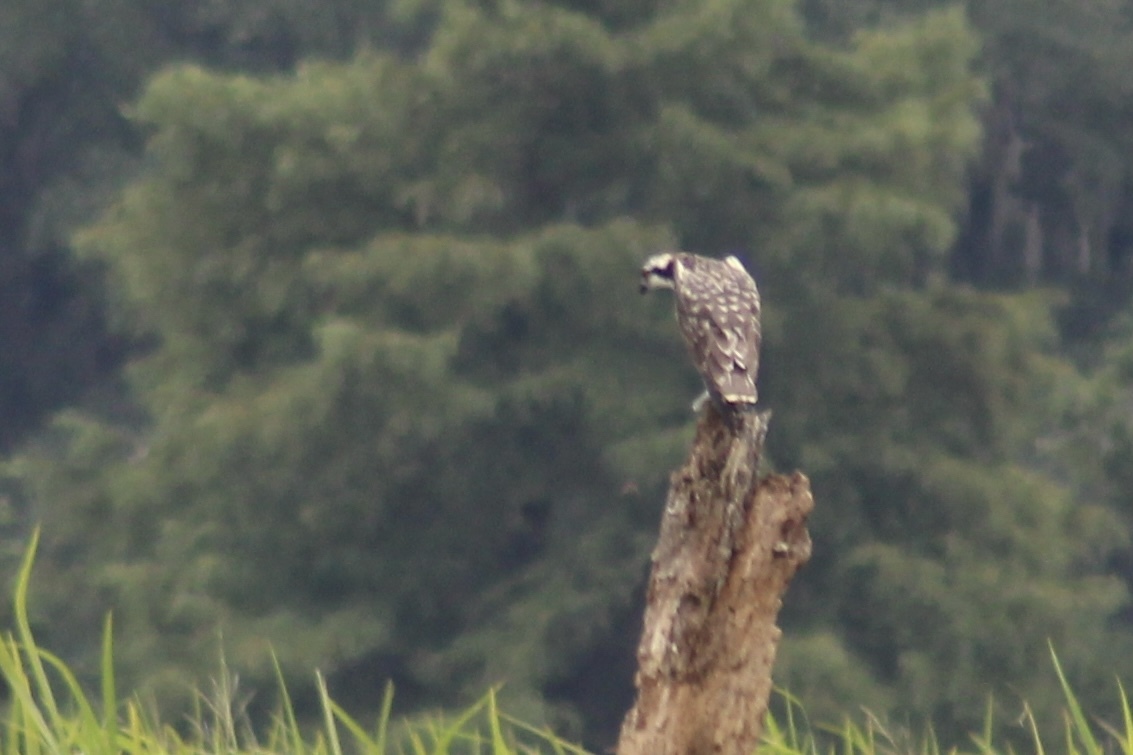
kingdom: Animalia
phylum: Chordata
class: Aves
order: Accipitriformes
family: Pandionidae
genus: Pandion
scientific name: Pandion haliaetus
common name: Osprey
